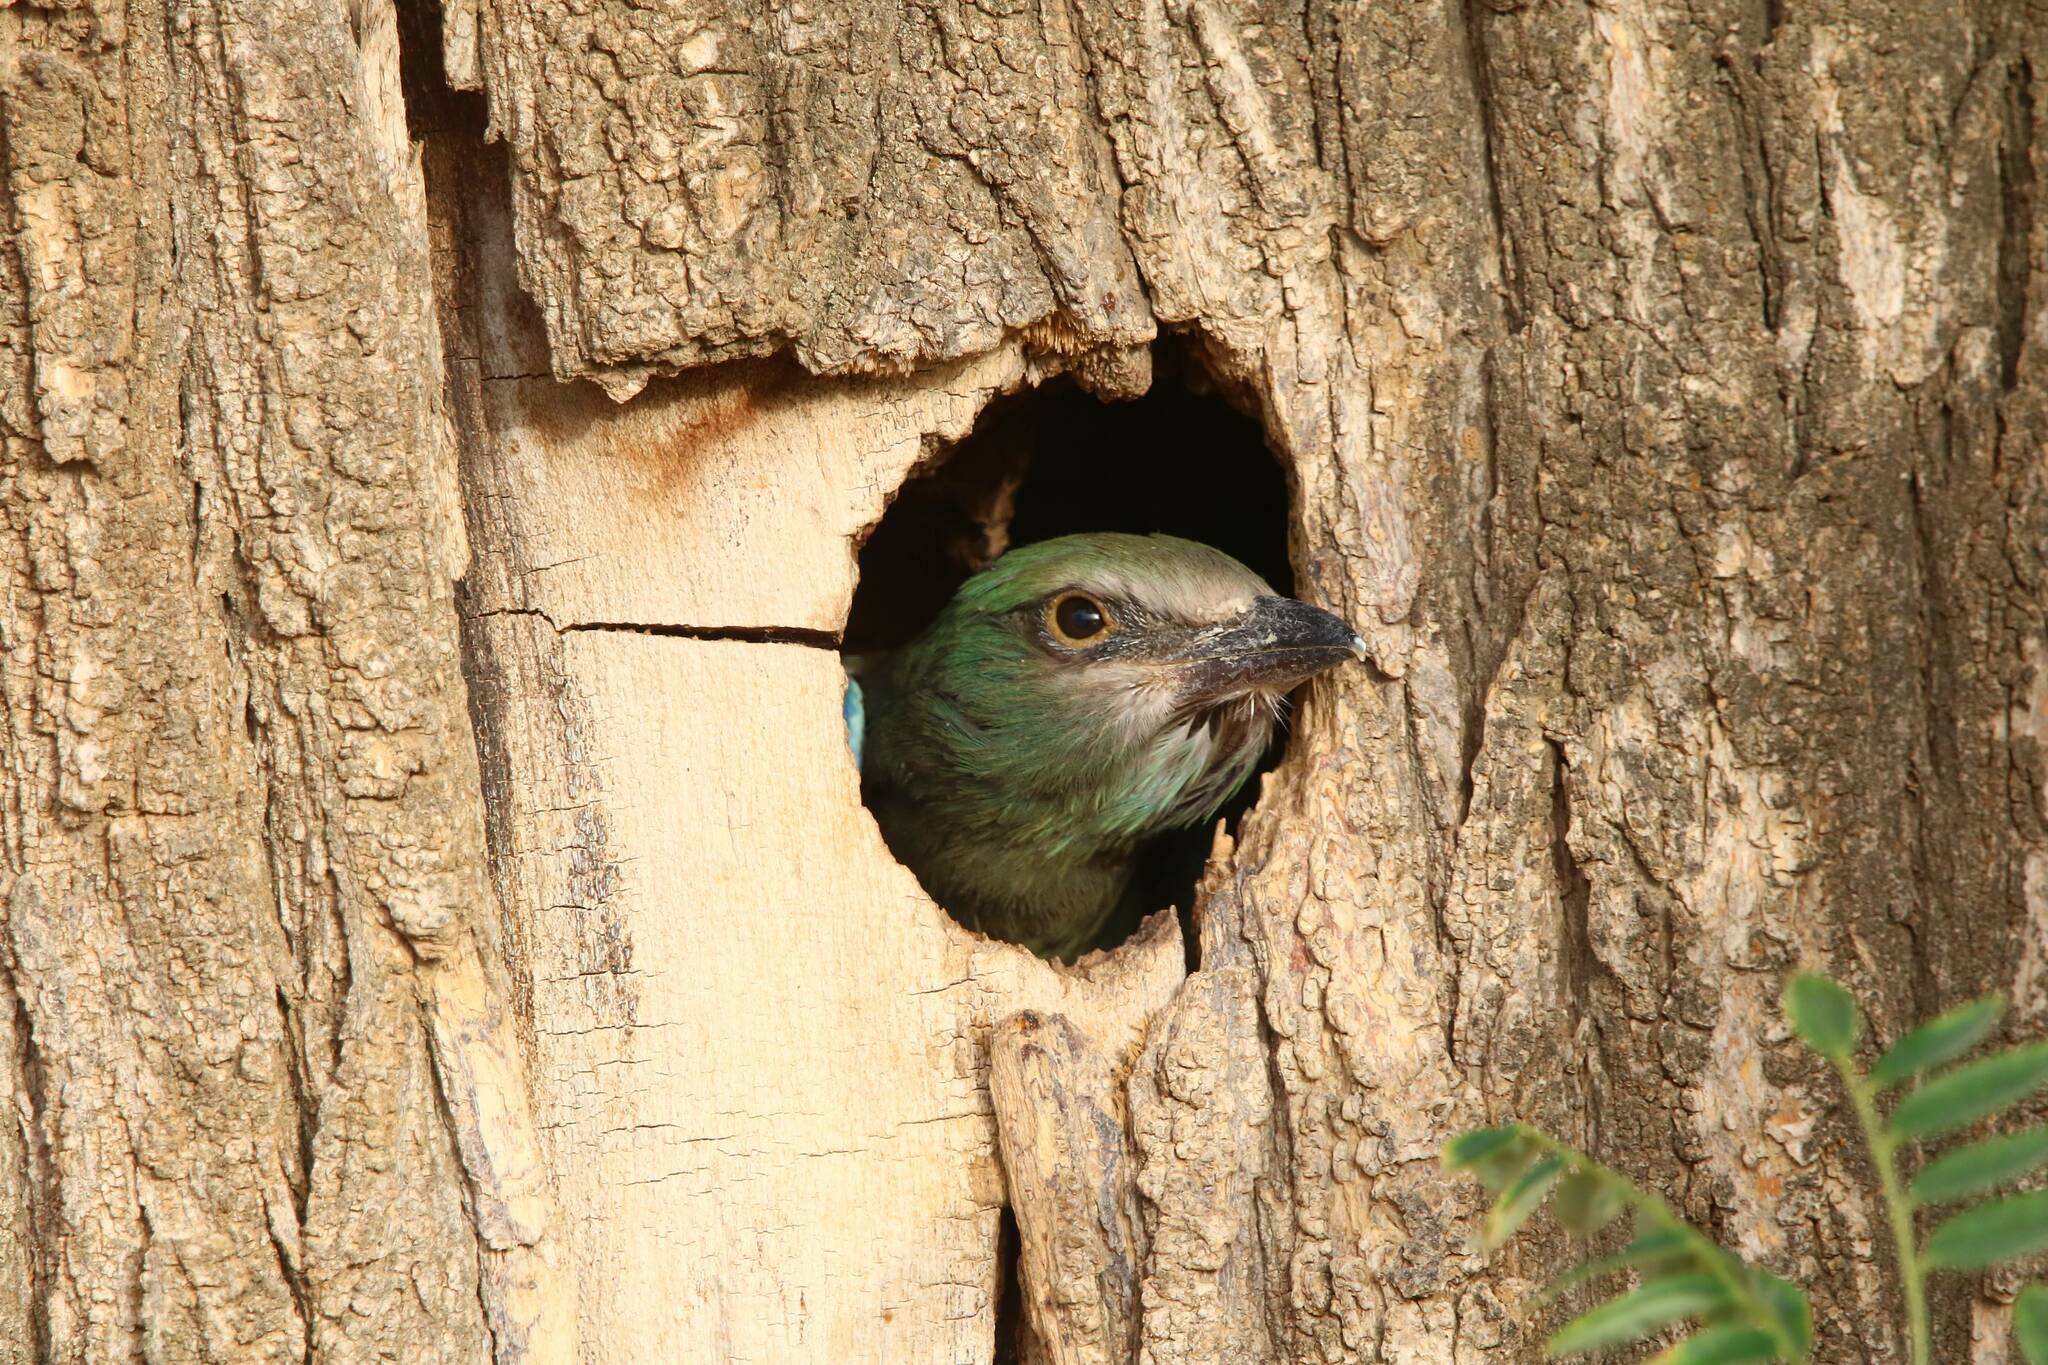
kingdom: Animalia
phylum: Chordata
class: Aves
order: Coraciiformes
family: Coraciidae
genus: Coracias
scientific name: Coracias garrulus
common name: European roller
